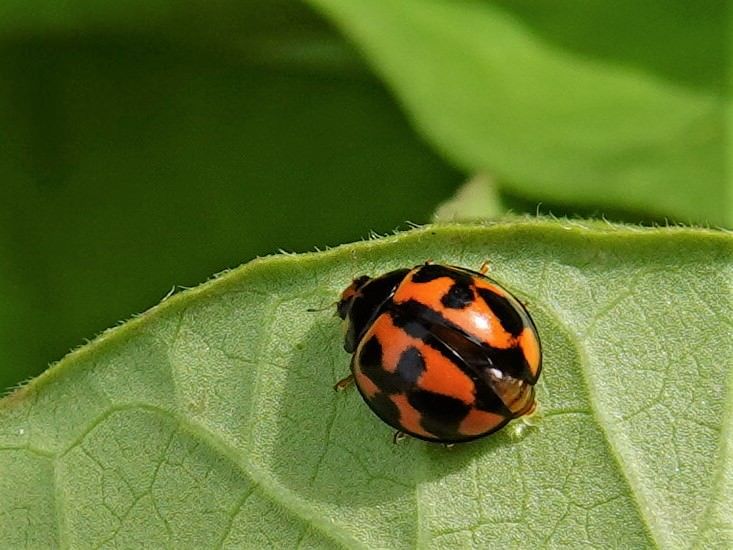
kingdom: Animalia
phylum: Arthropoda
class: Insecta
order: Coleoptera
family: Coccinellidae
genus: Coelophora
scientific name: Coelophora inaequalis
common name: Common australian lady beetle
